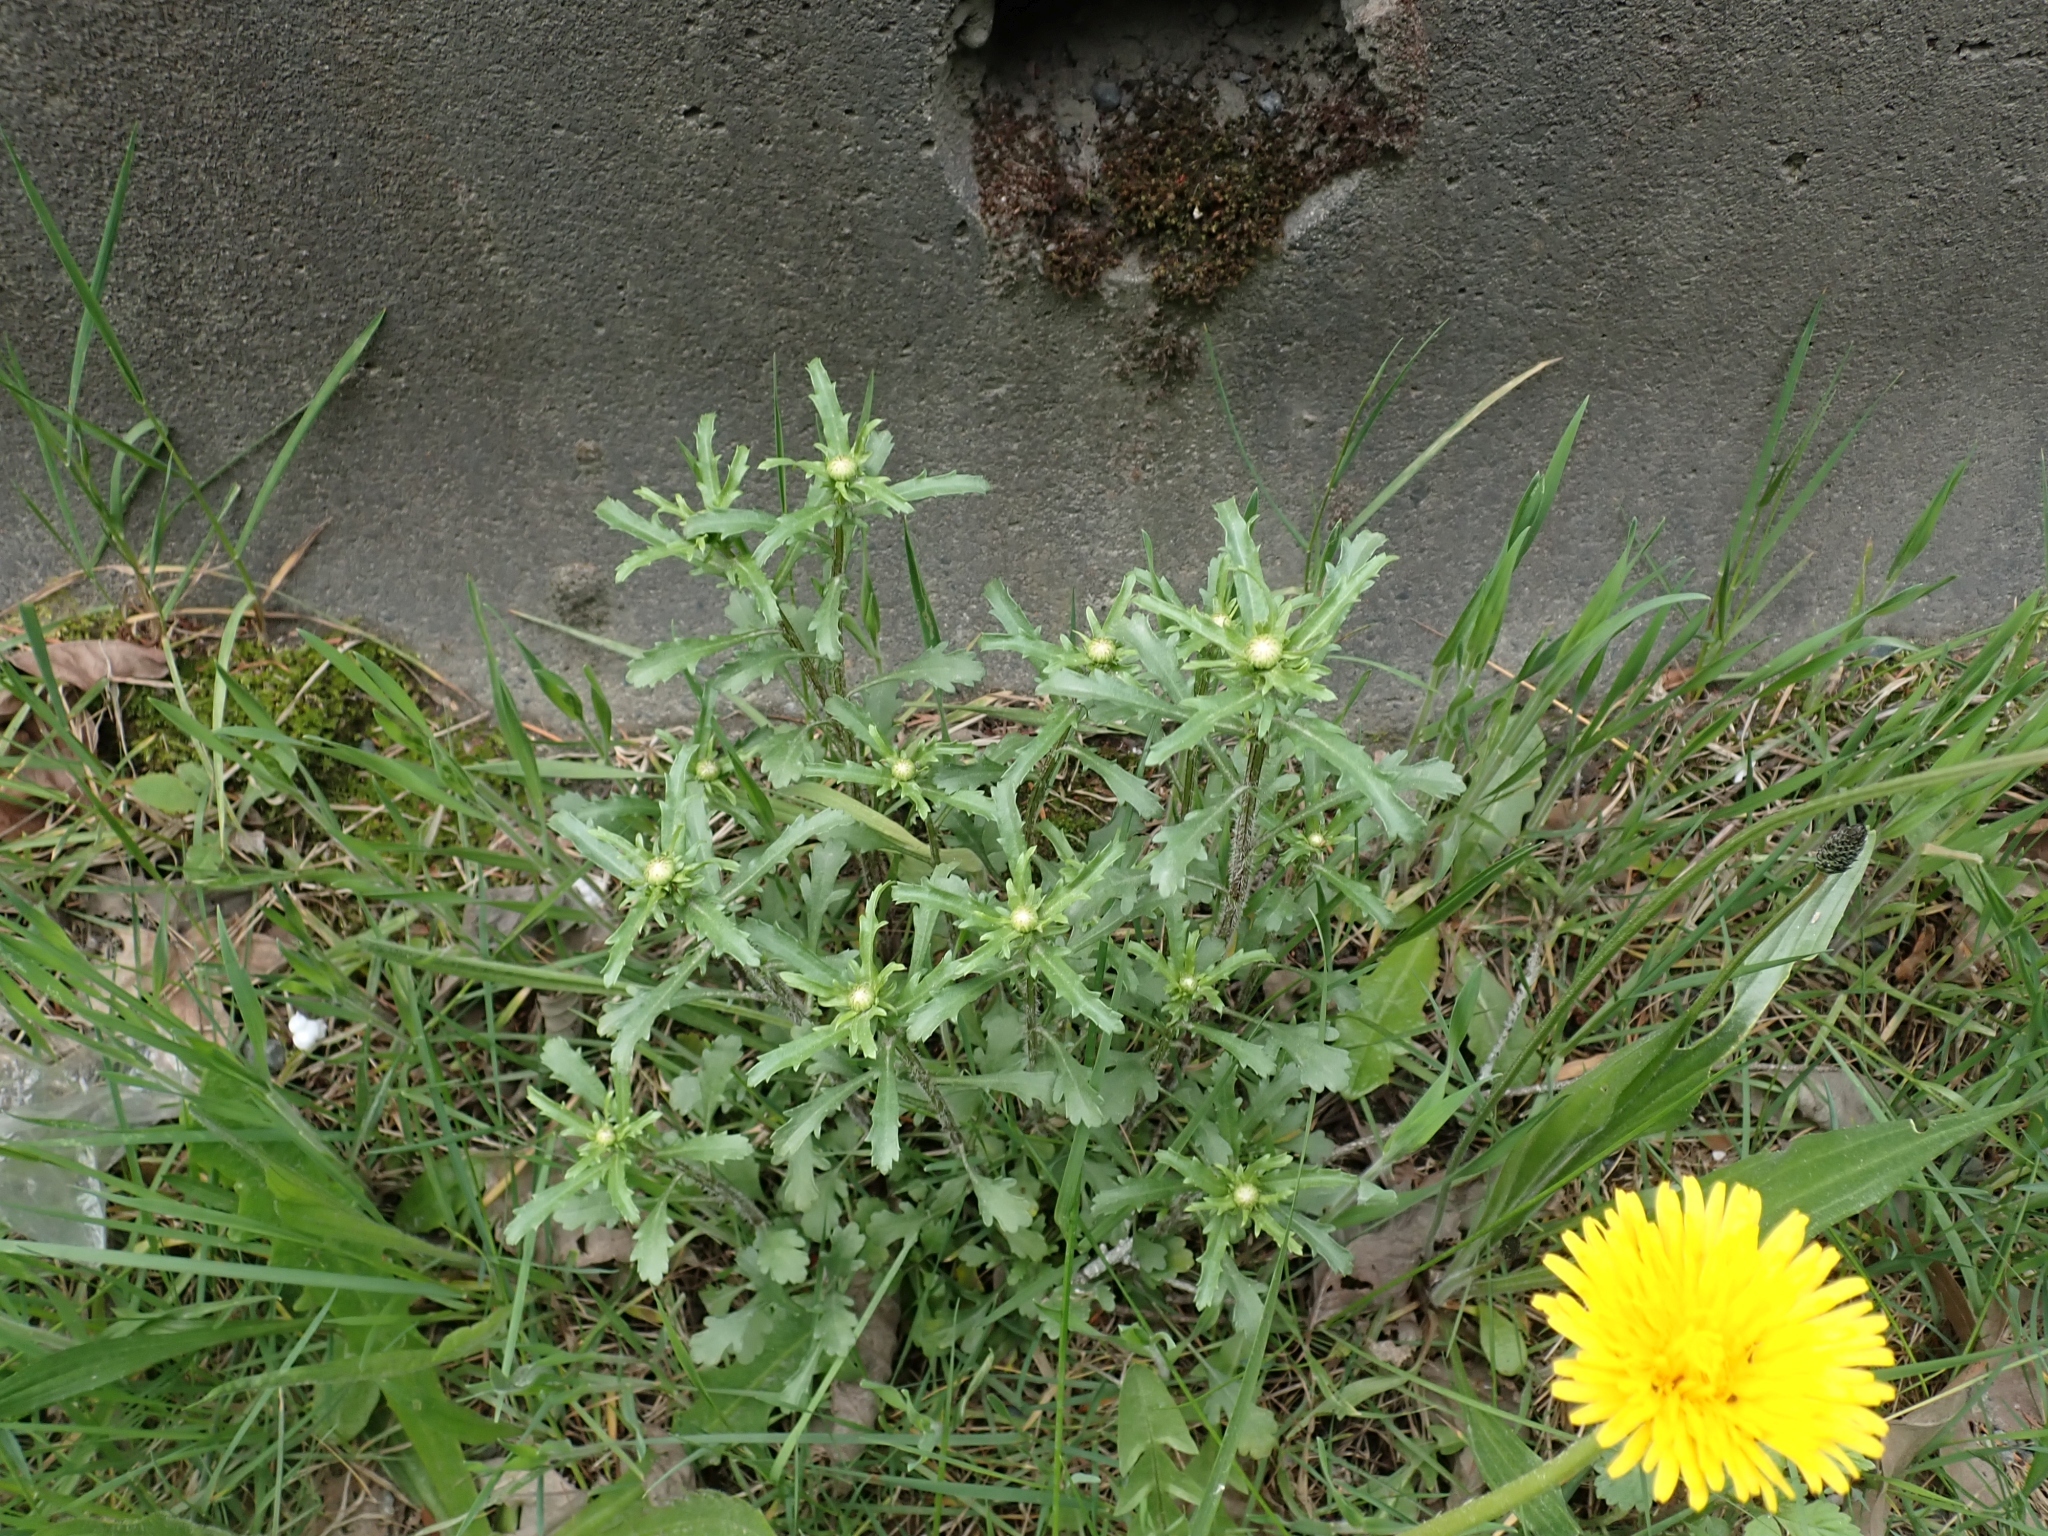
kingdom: Plantae
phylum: Tracheophyta
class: Magnoliopsida
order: Asterales
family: Asteraceae
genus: Leucanthemum
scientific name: Leucanthemum vulgare
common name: Oxeye daisy
